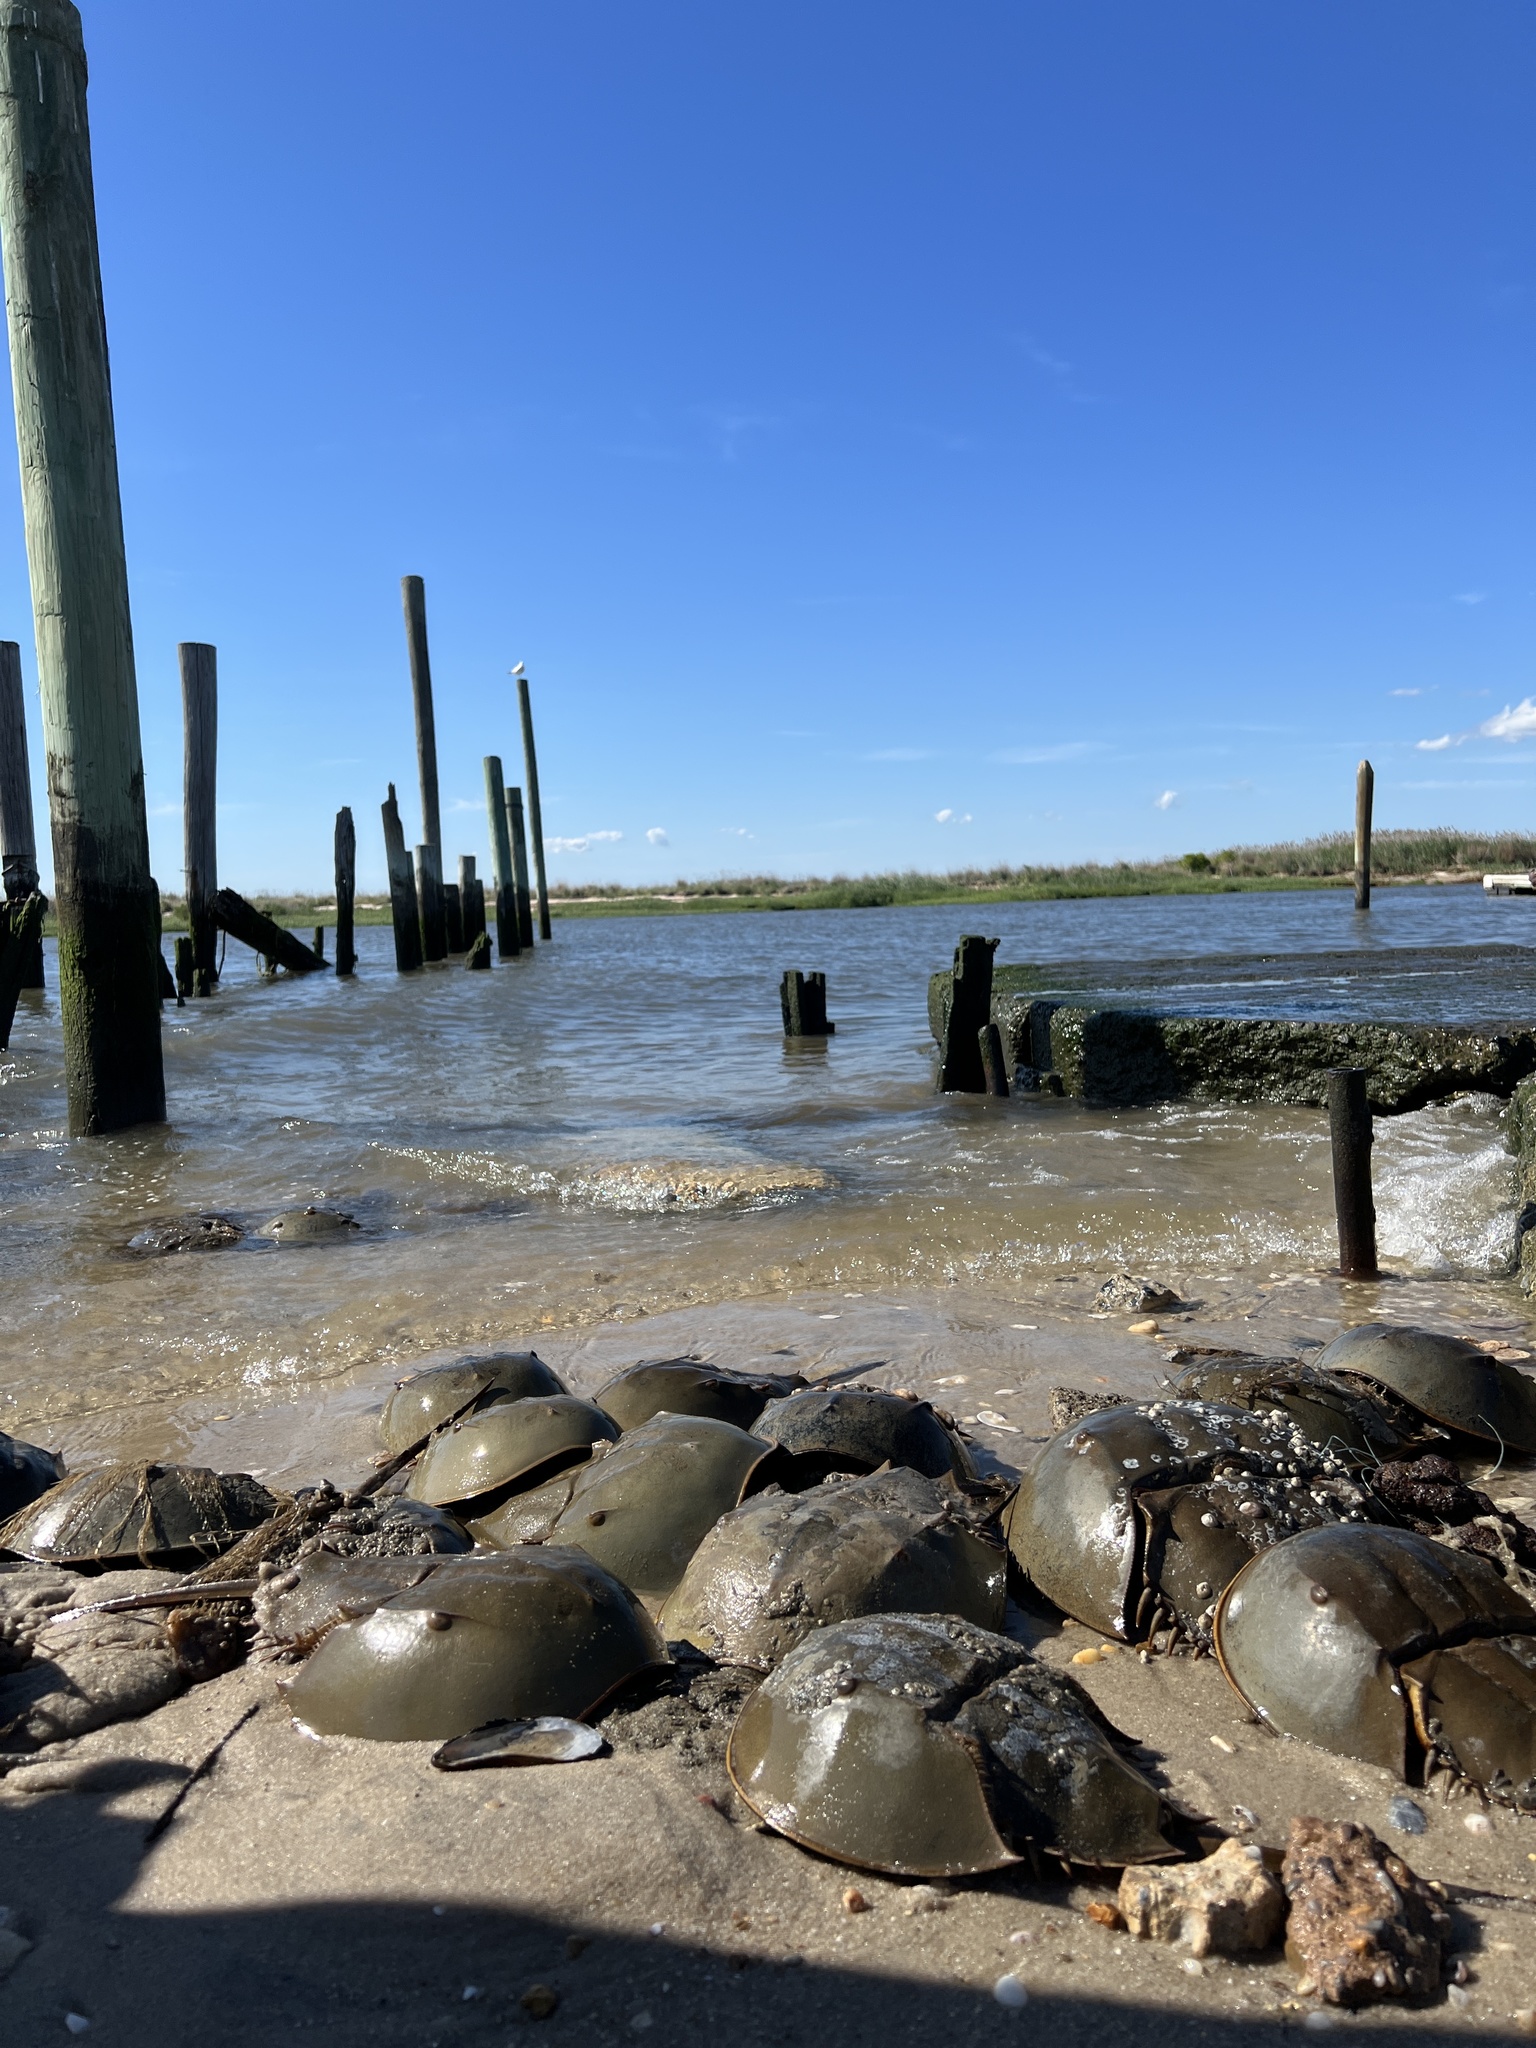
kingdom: Animalia
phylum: Arthropoda
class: Merostomata
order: Xiphosurida
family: Limulidae
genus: Limulus
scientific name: Limulus polyphemus
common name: Horseshoe crab
